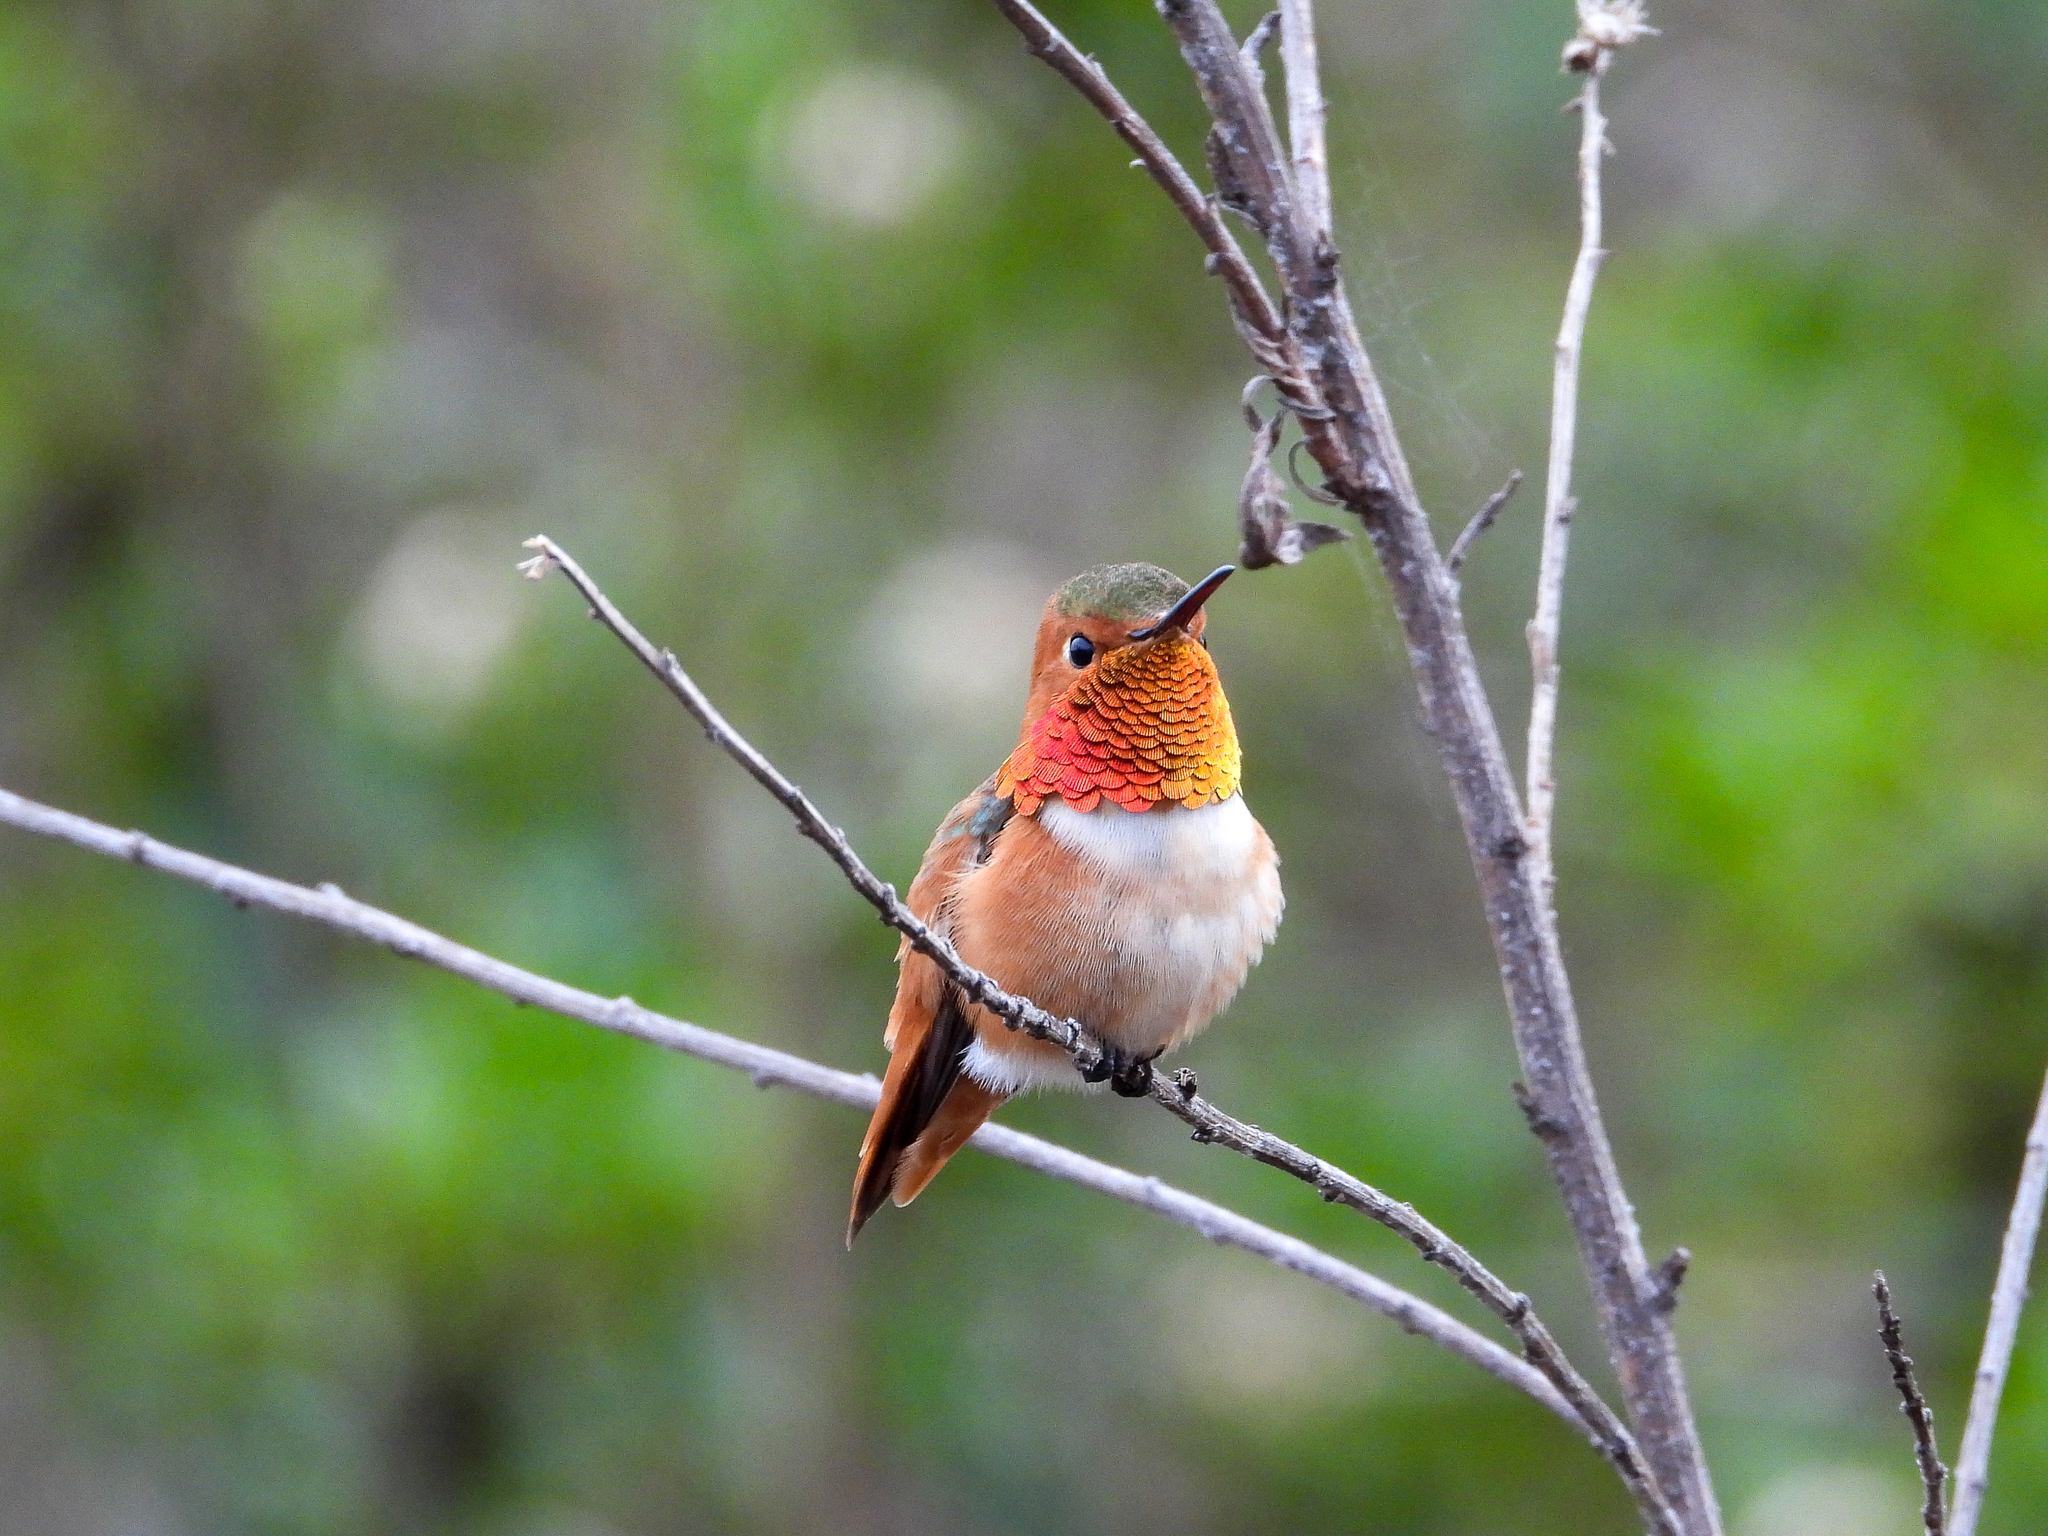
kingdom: Animalia
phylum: Chordata
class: Aves
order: Apodiformes
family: Trochilidae
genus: Selasphorus
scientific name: Selasphorus sasin
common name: Allen's hummingbird
